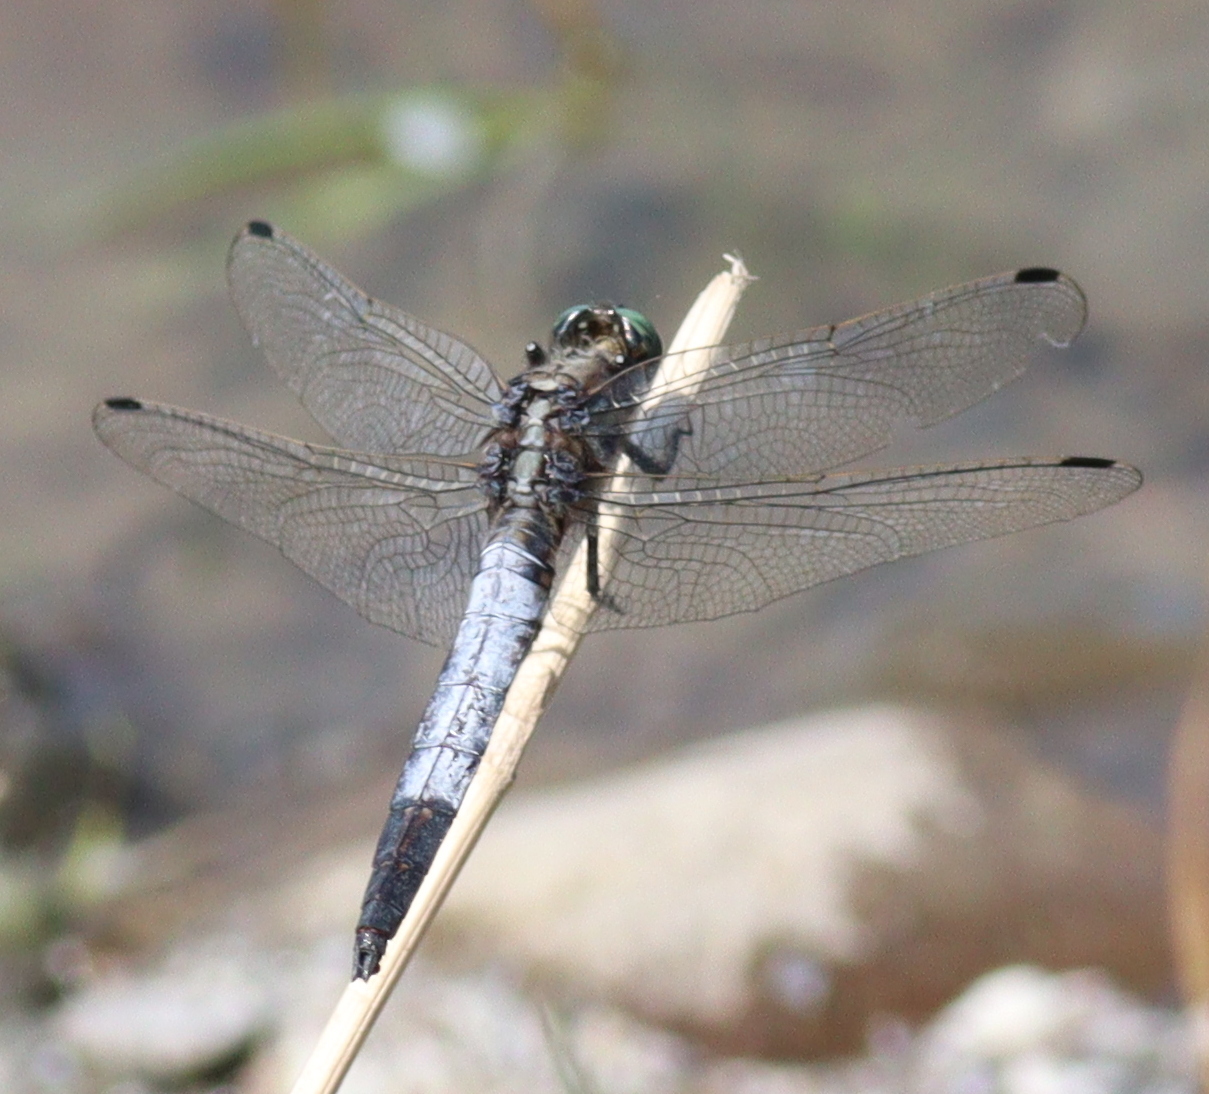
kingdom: Animalia
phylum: Arthropoda
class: Insecta
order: Odonata
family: Libellulidae
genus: Orthetrum
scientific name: Orthetrum albistylum
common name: White-tailed skimmer
